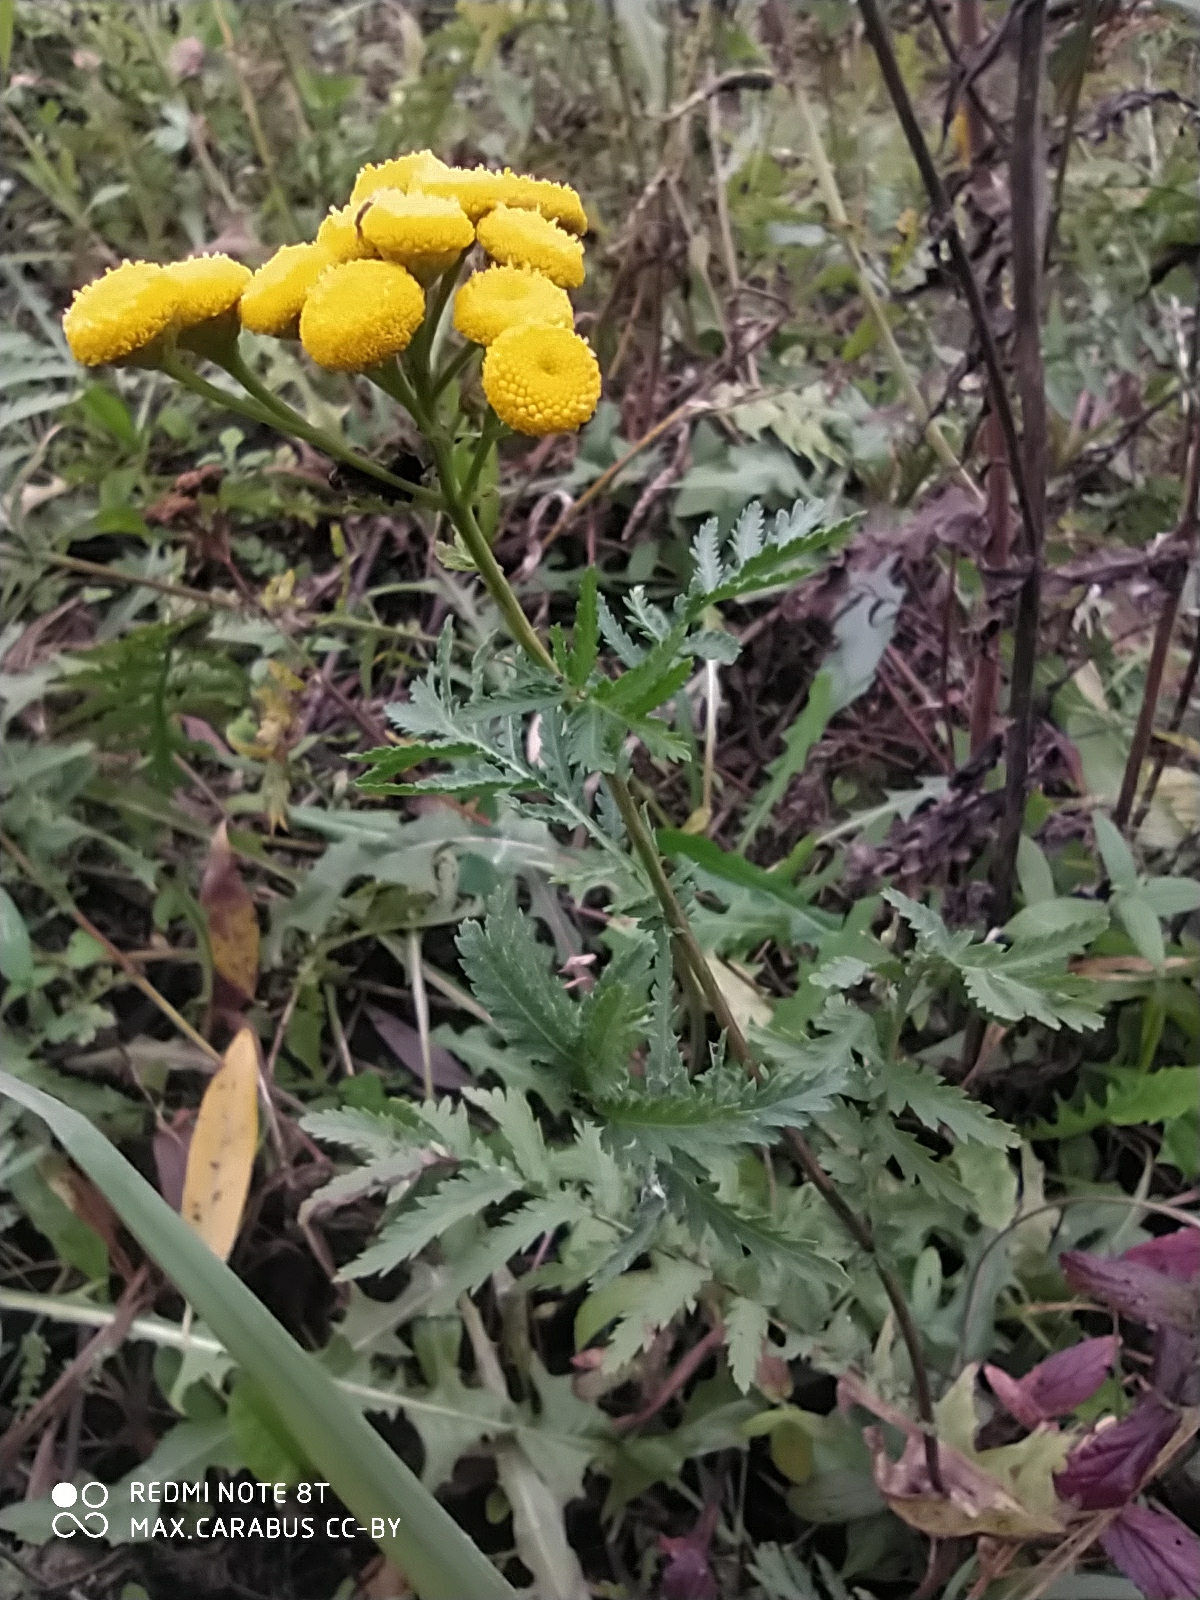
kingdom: Plantae
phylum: Tracheophyta
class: Magnoliopsida
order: Asterales
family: Asteraceae
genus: Tanacetum
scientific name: Tanacetum vulgare
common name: Common tansy
